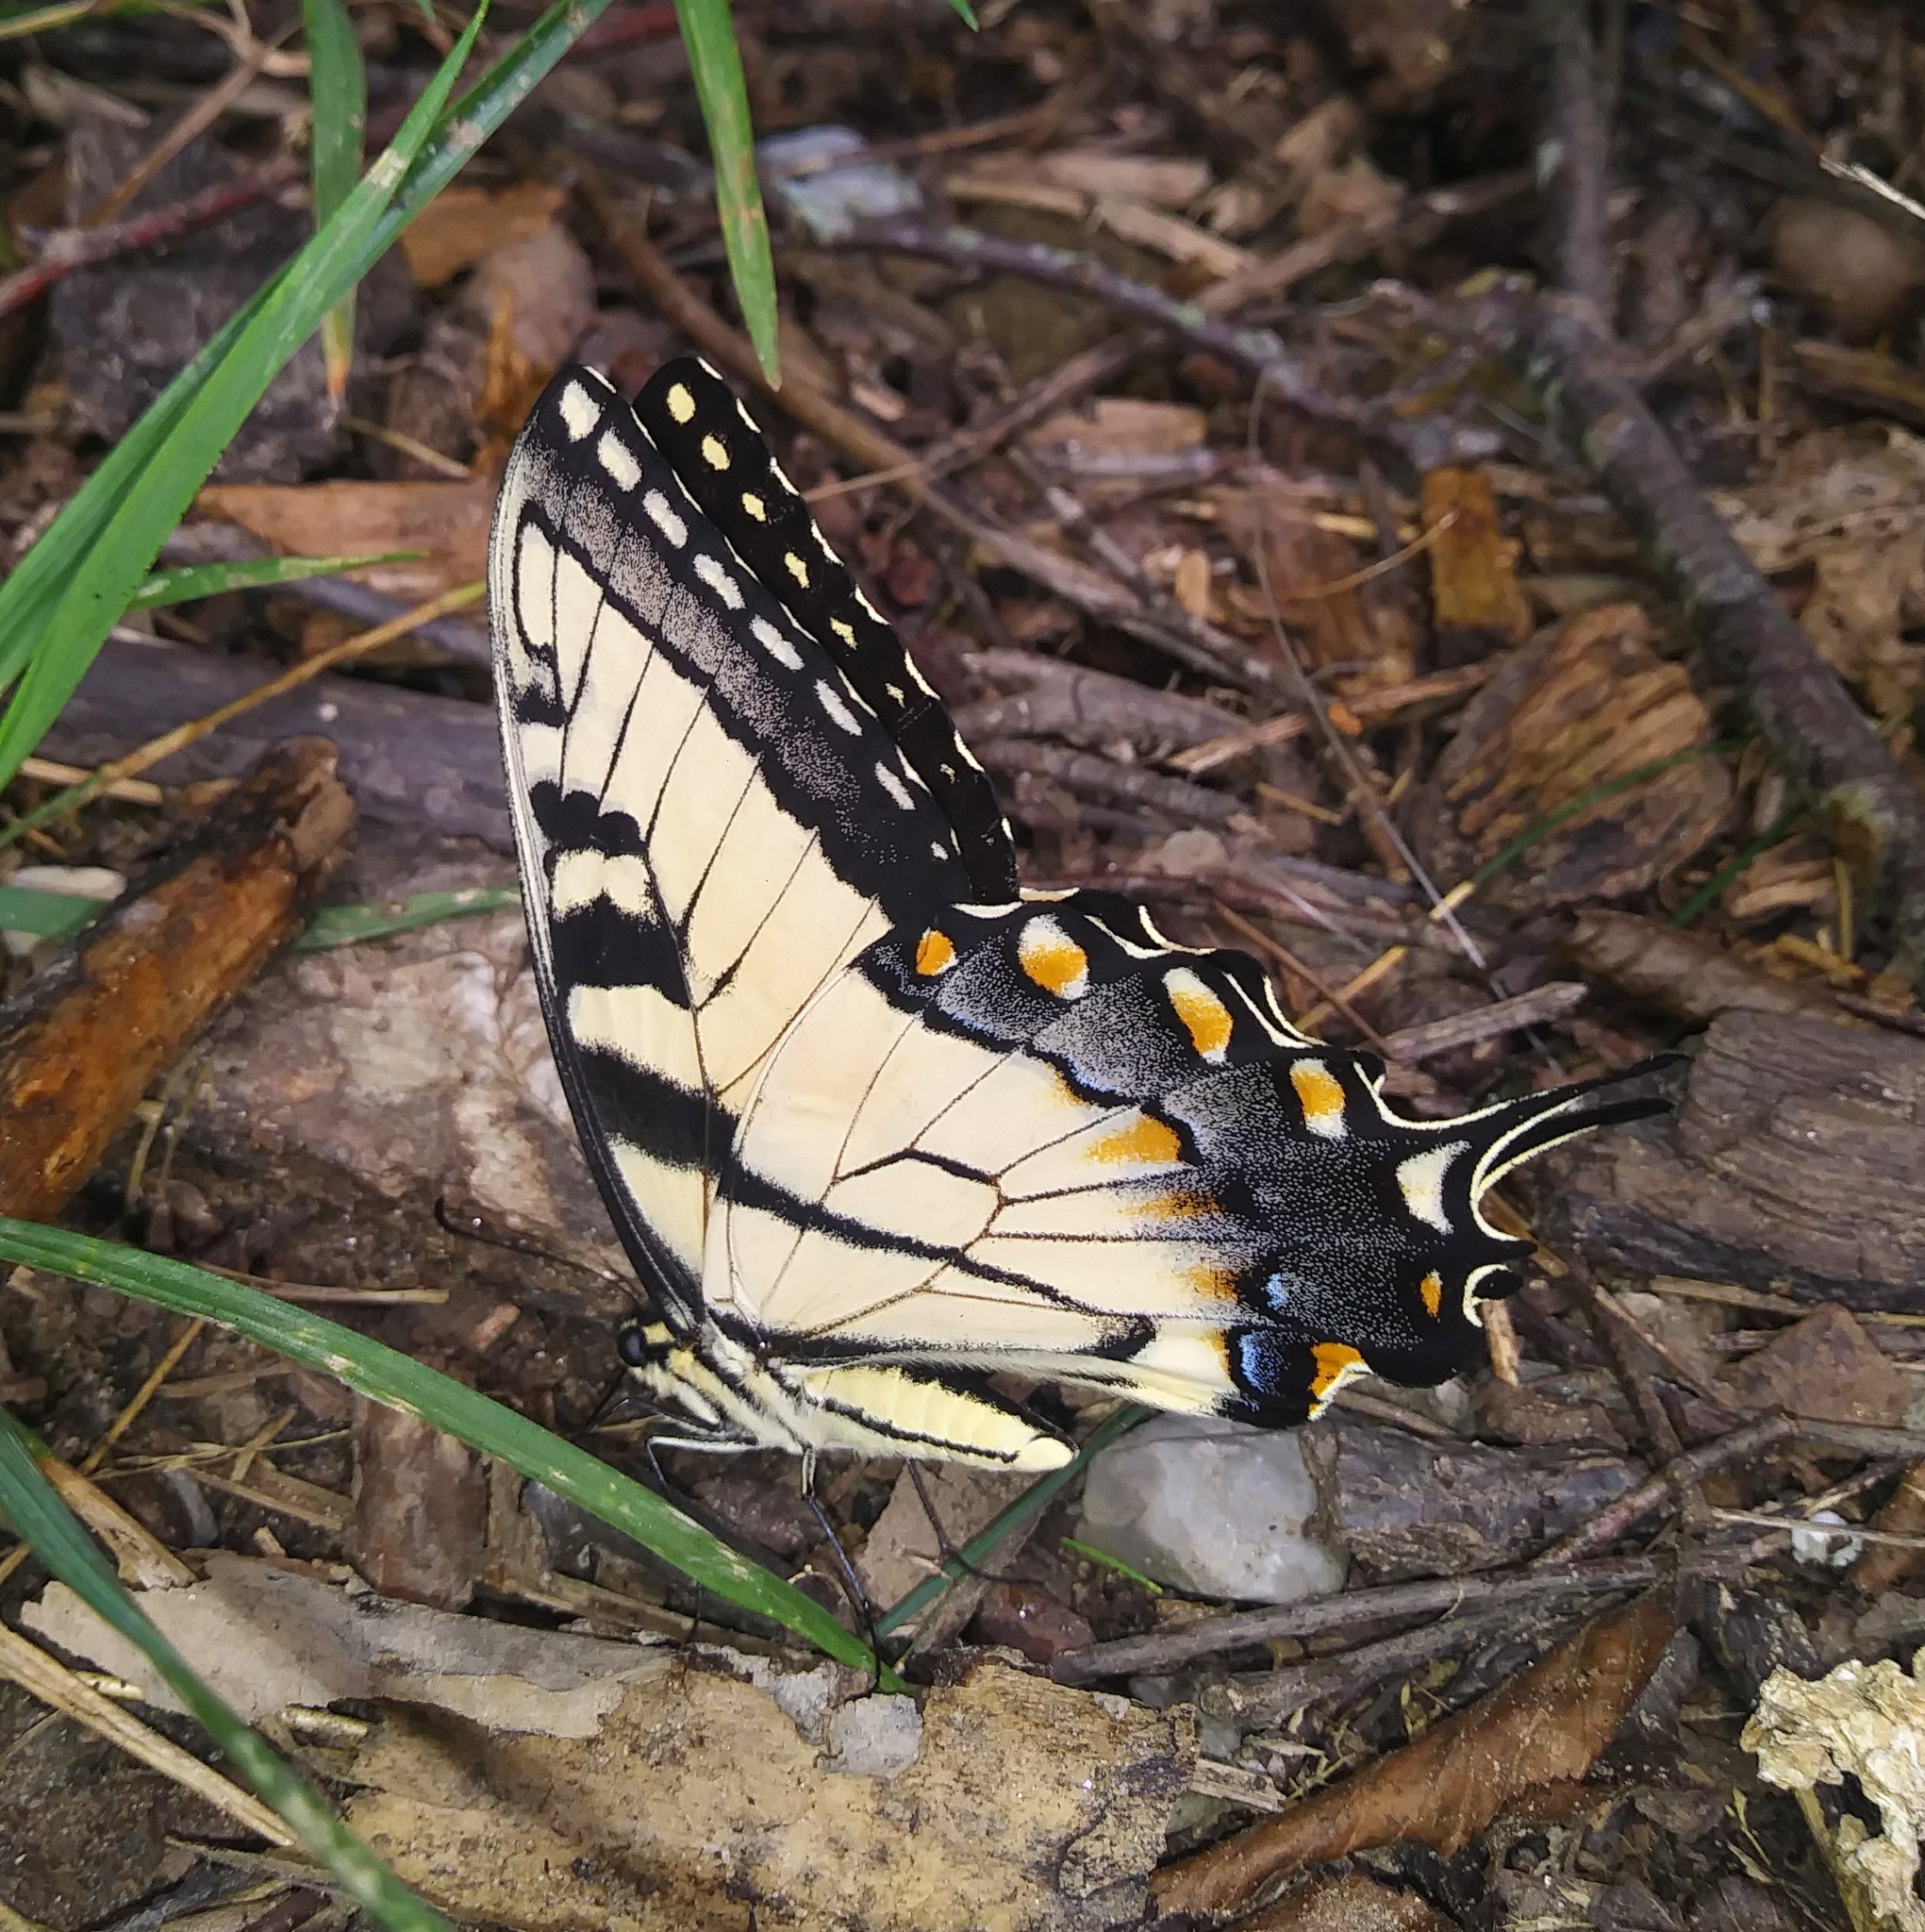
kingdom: Animalia
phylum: Arthropoda
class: Insecta
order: Lepidoptera
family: Papilionidae
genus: Papilio
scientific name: Papilio glaucus
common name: Tiger swallowtail
